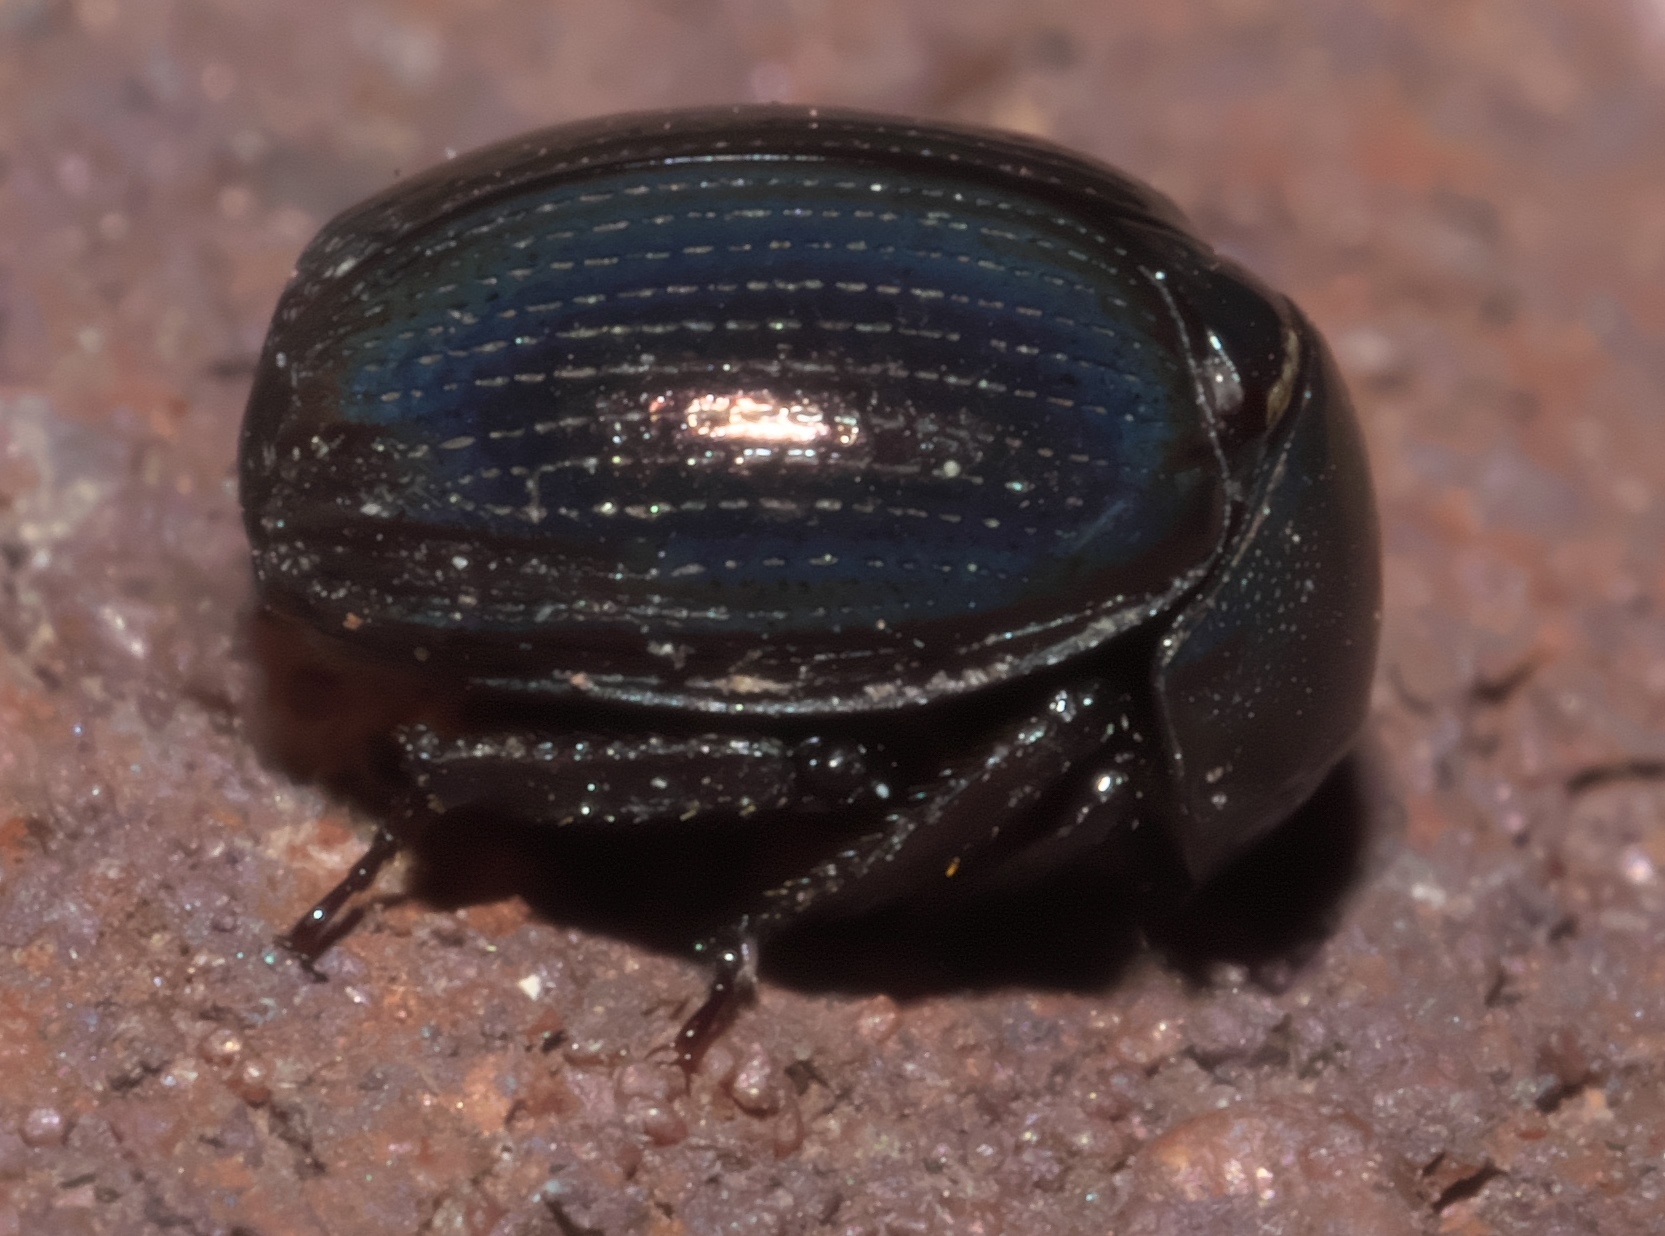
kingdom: Animalia
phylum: Arthropoda
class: Insecta
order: Coleoptera
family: Hybosoridae
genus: Germarostes
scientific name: Germarostes globosus
